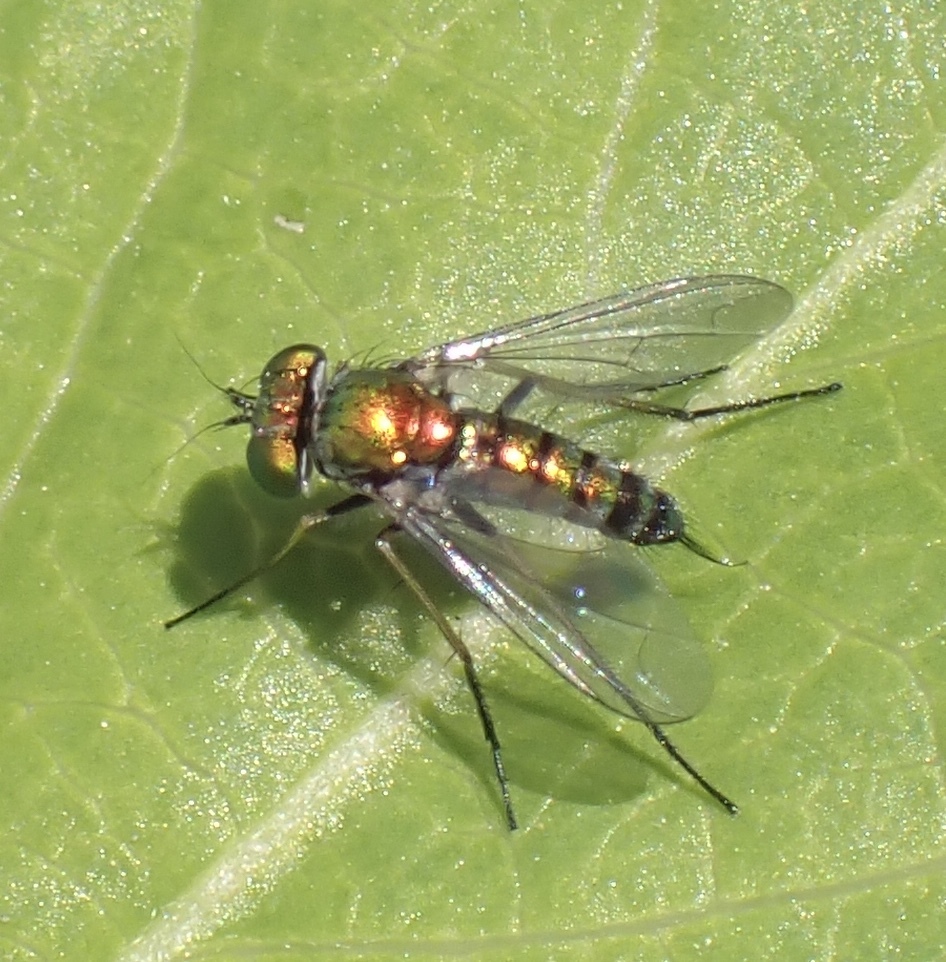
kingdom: Animalia
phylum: Arthropoda
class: Insecta
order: Diptera
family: Dolichopodidae
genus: Condylostylus
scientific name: Condylostylus caudatus
